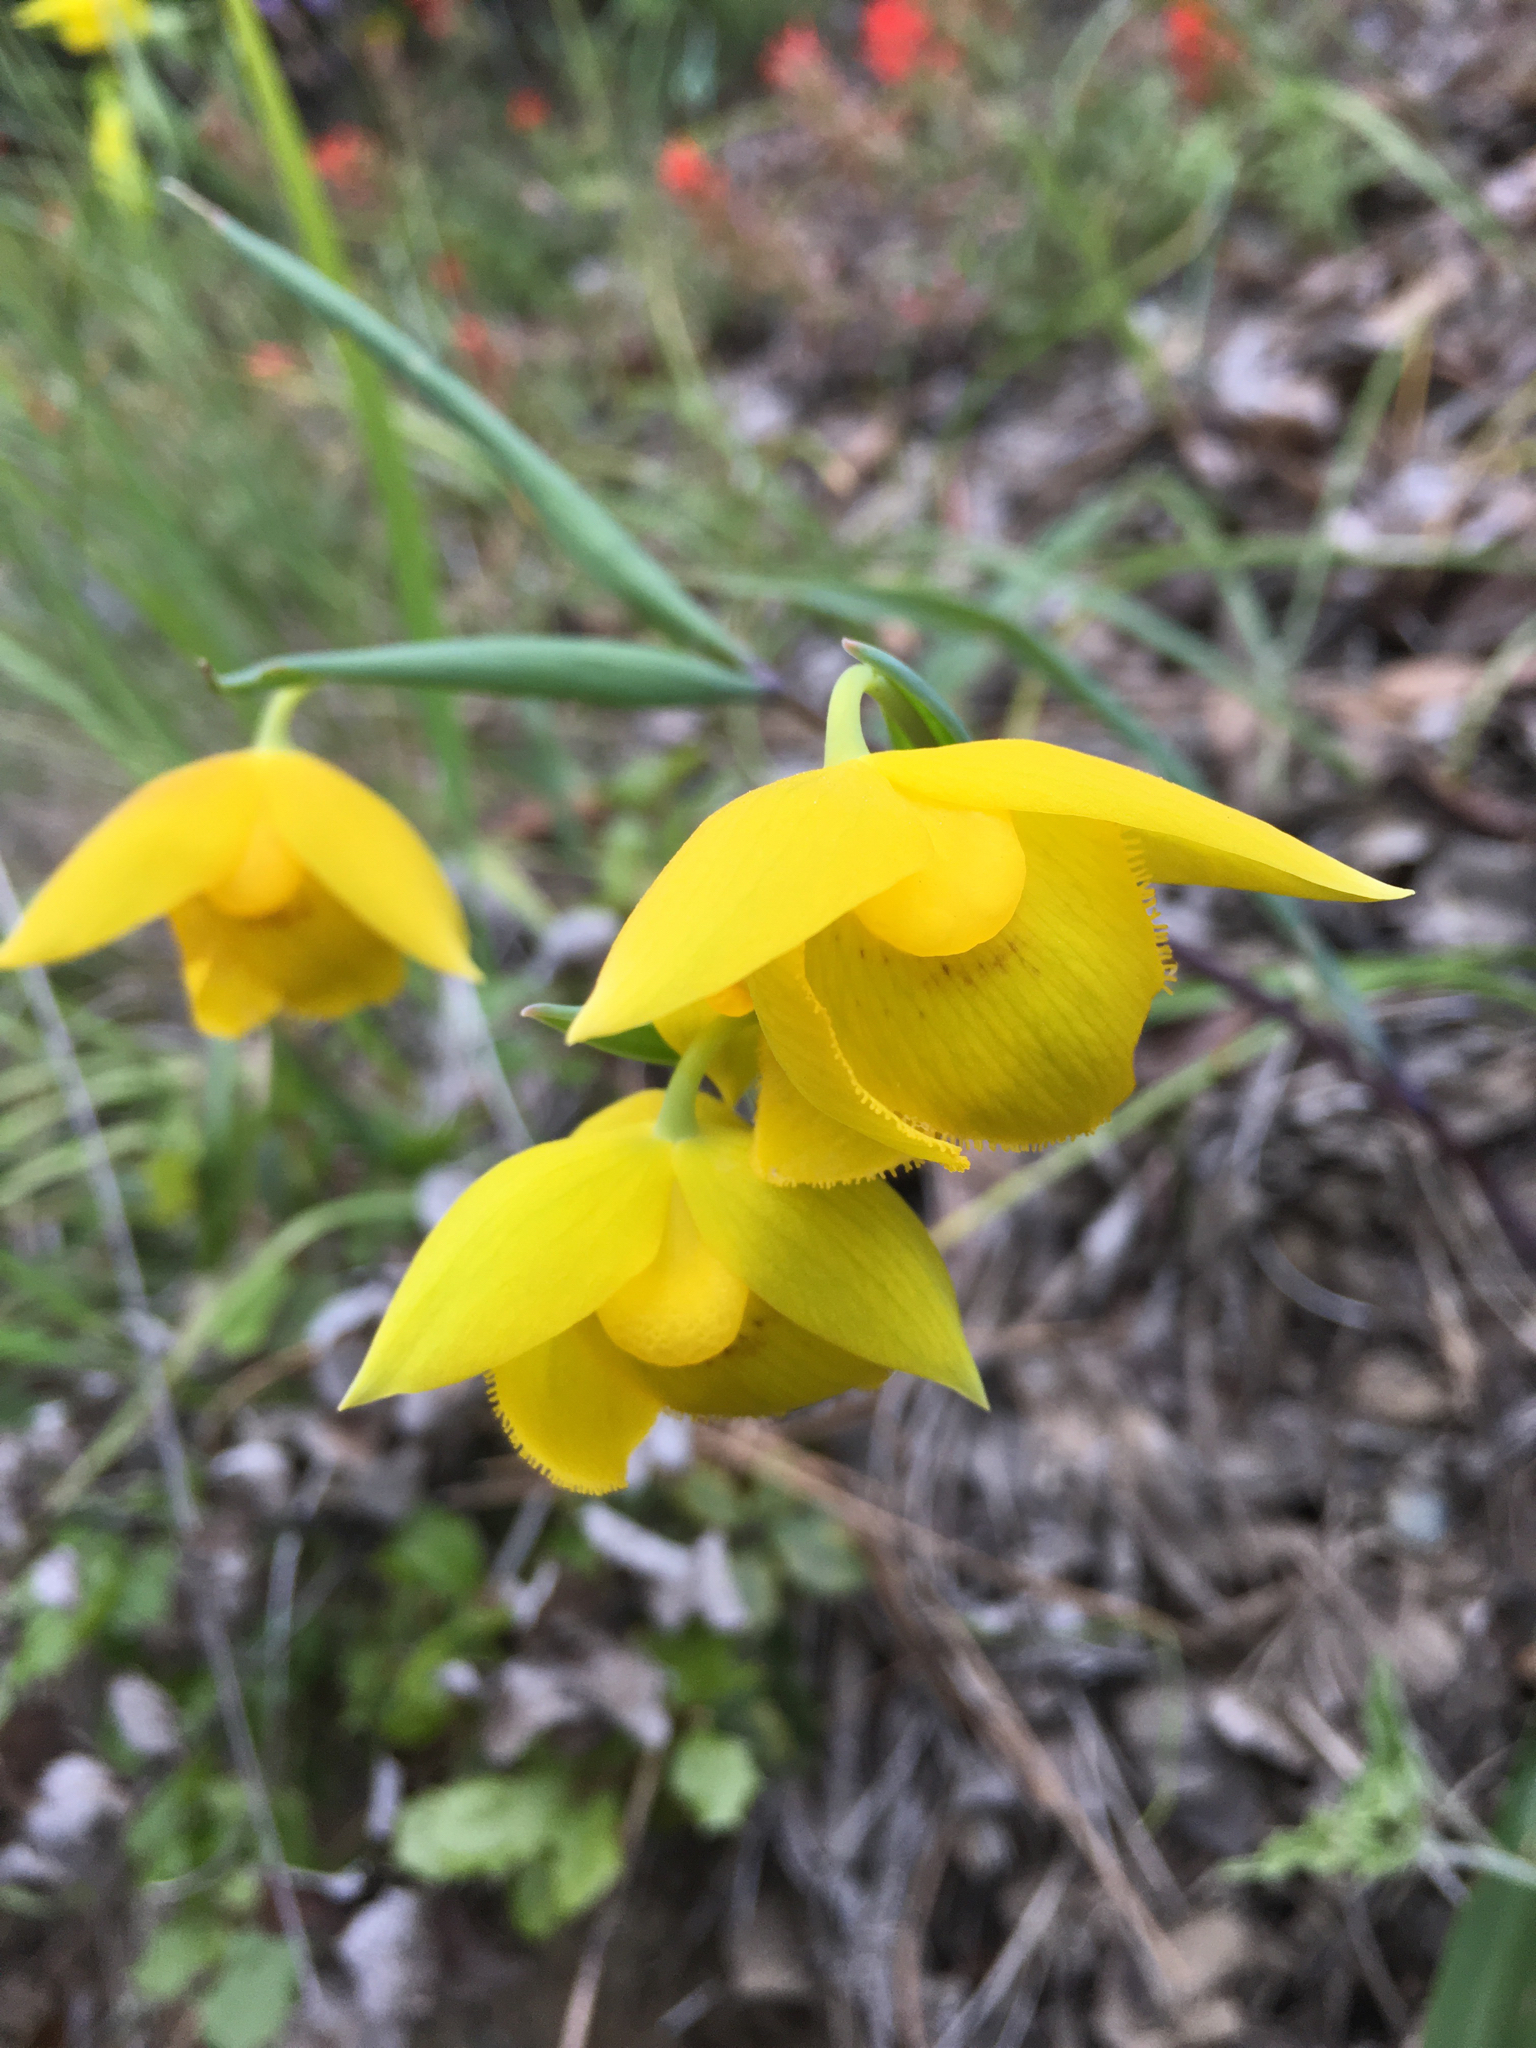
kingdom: Plantae
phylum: Tracheophyta
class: Liliopsida
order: Liliales
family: Liliaceae
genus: Calochortus
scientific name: Calochortus amabilis
